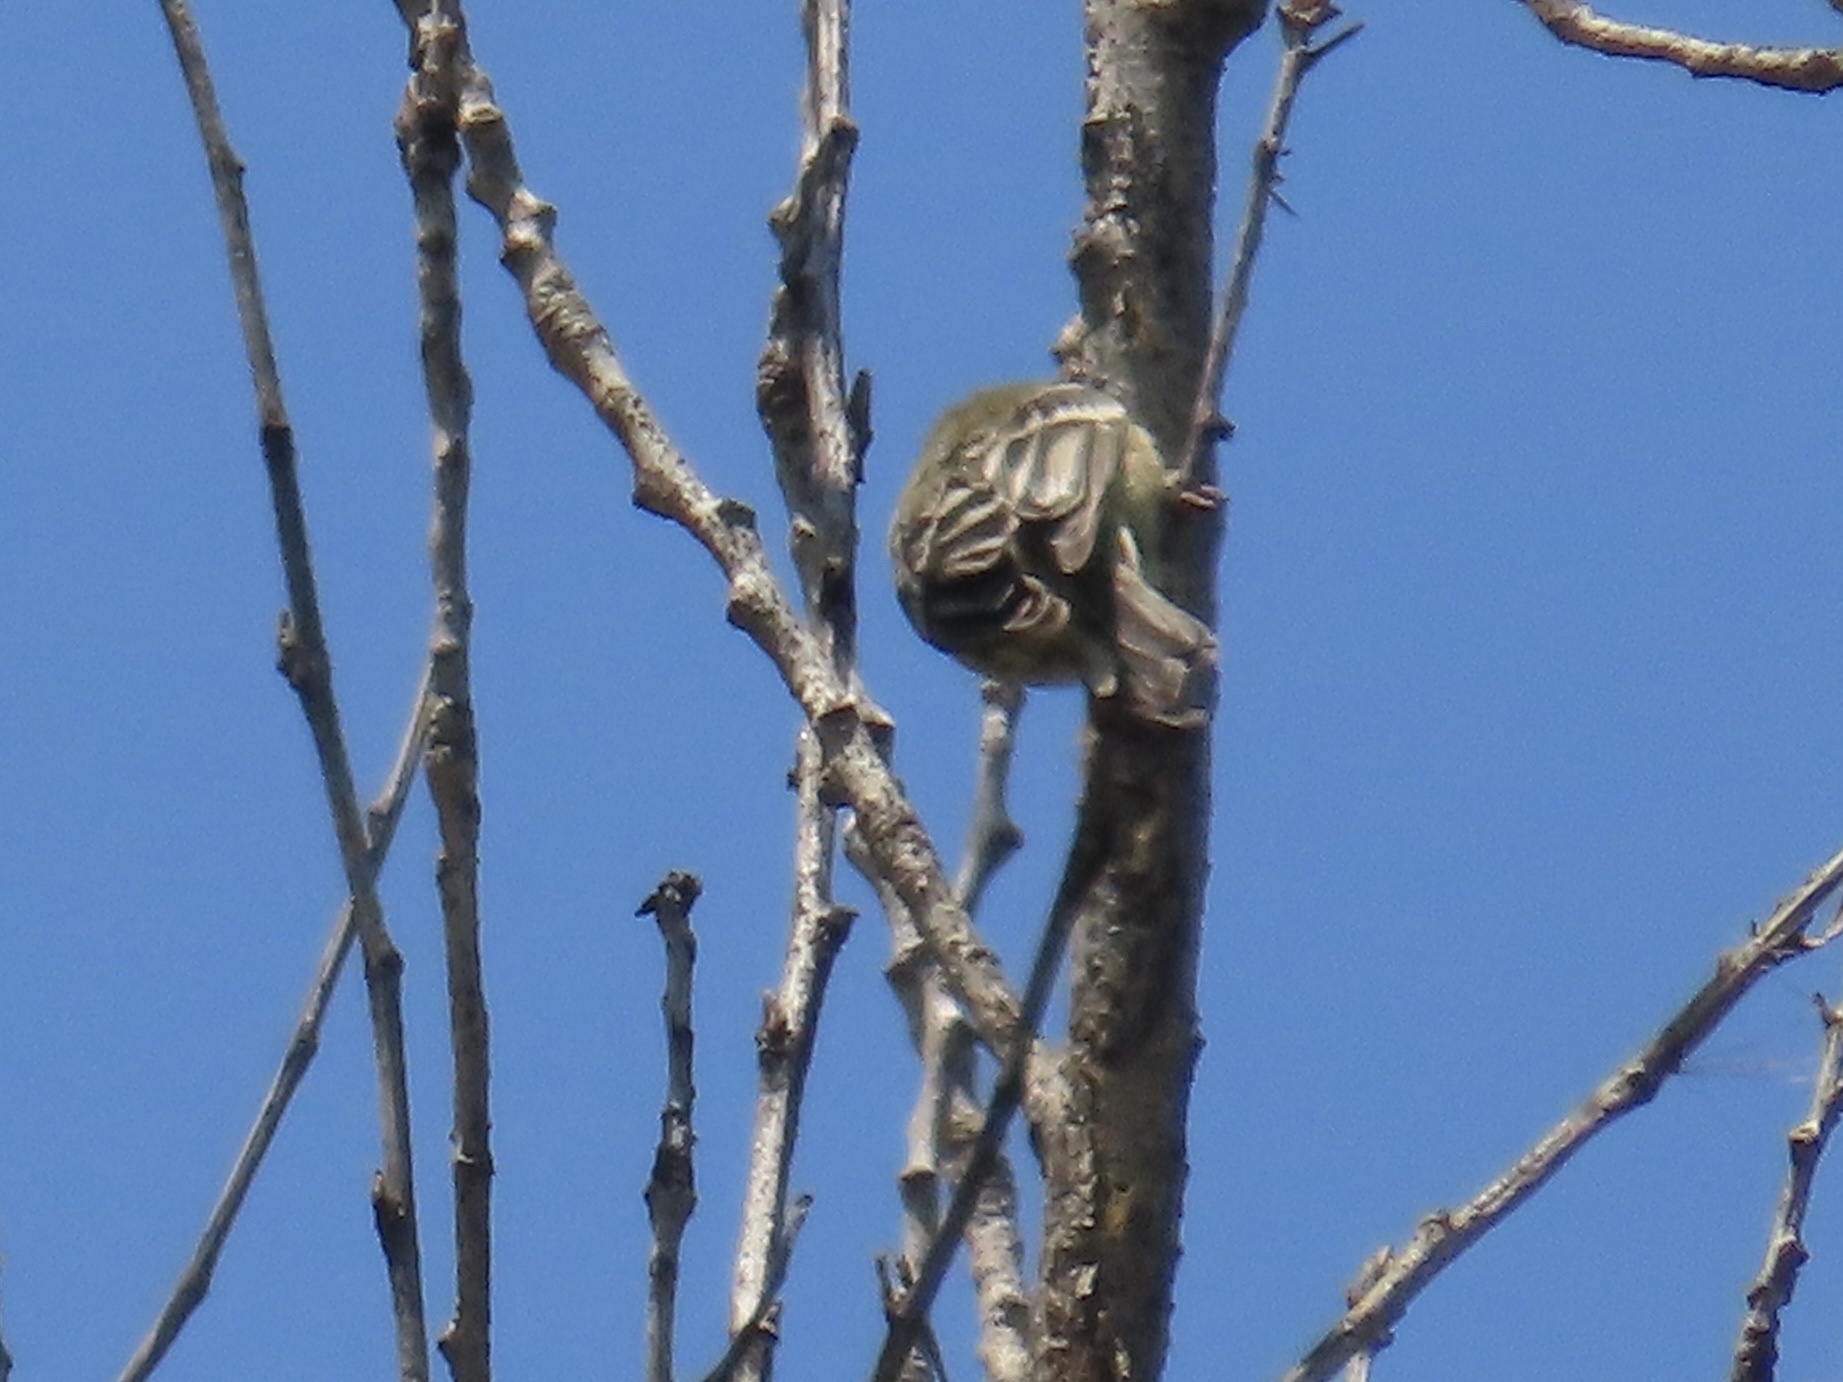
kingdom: Animalia
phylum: Chordata
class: Aves
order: Passeriformes
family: Fringillidae
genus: Spinus
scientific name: Spinus psaltria
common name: Lesser goldfinch
